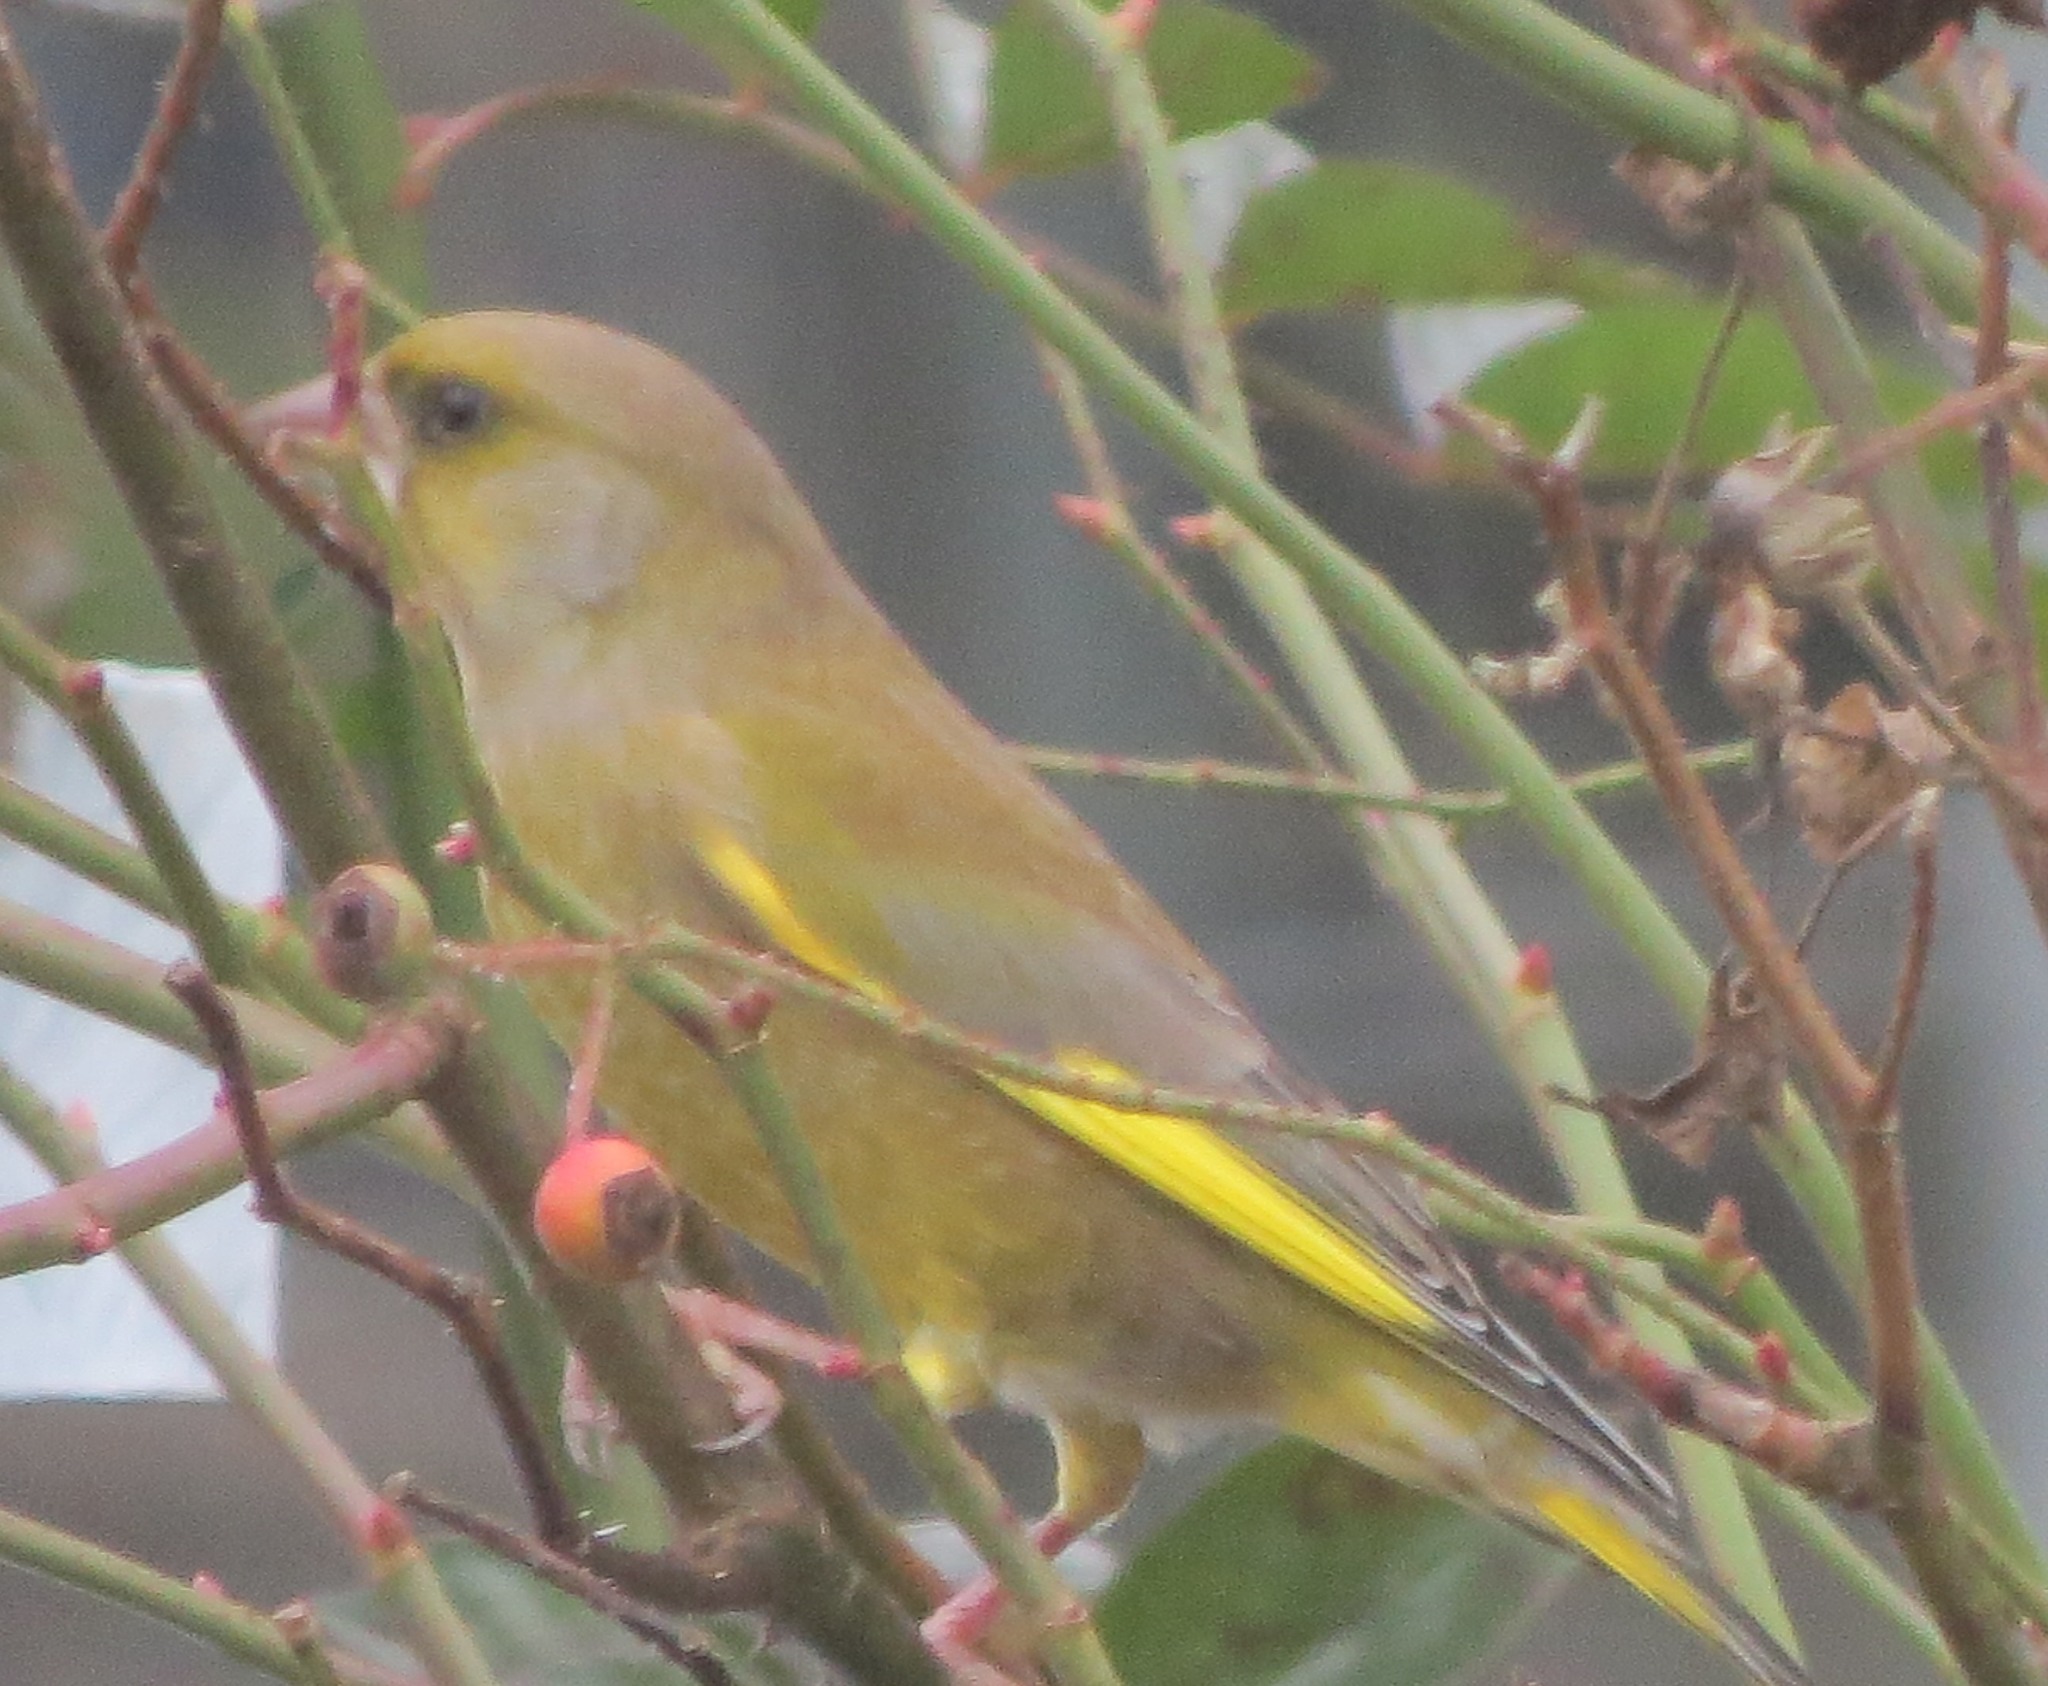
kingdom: Plantae
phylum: Tracheophyta
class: Liliopsida
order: Poales
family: Poaceae
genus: Chloris
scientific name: Chloris chloris
